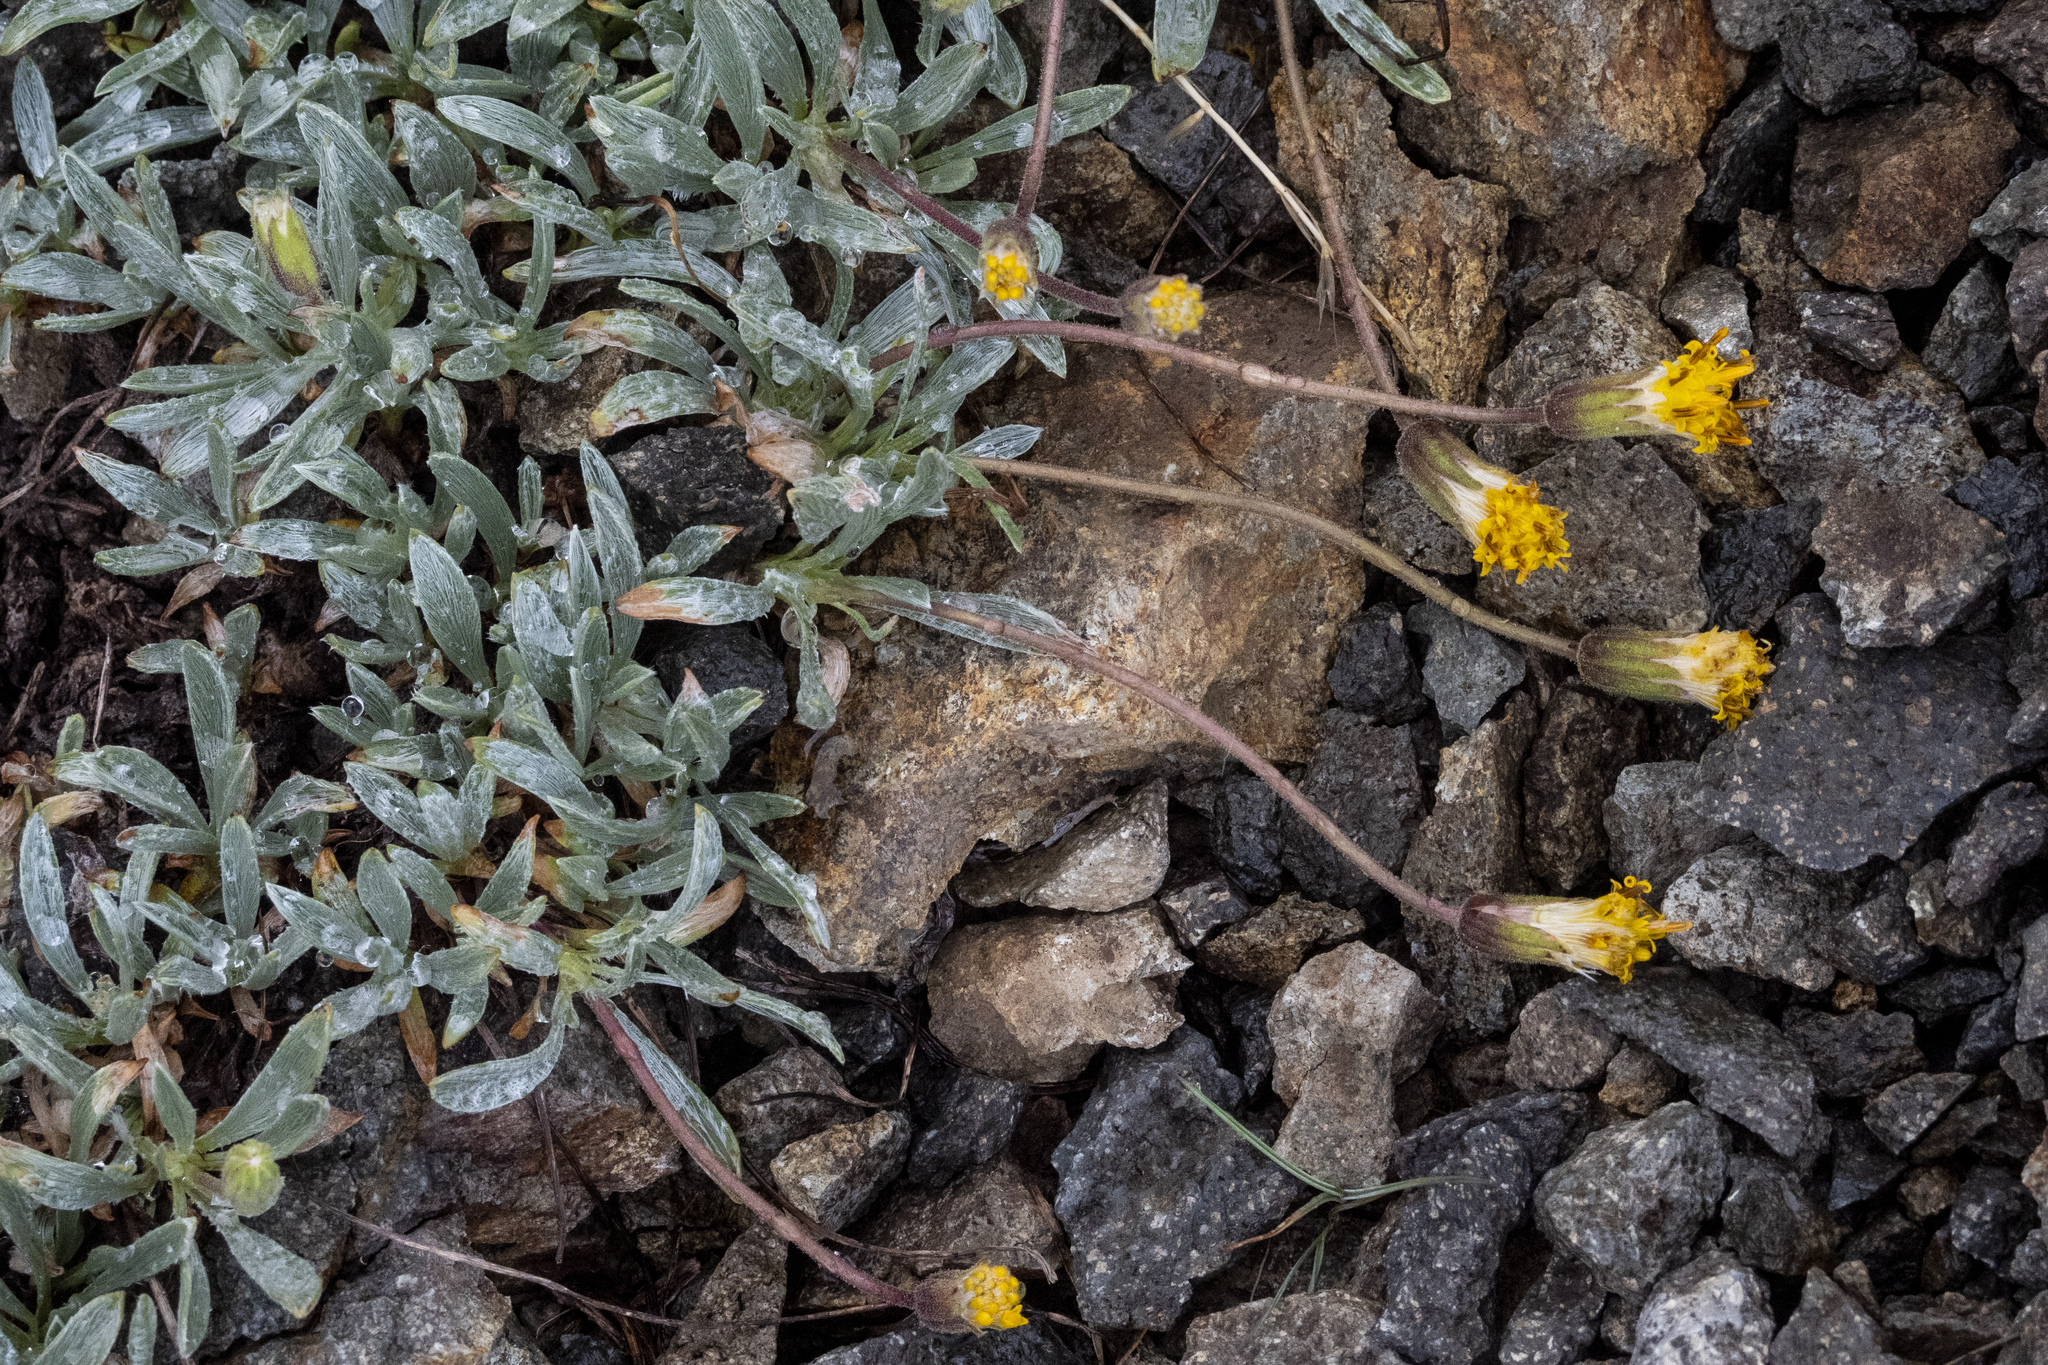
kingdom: Plantae
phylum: Tracheophyta
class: Magnoliopsida
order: Asterales
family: Asteraceae
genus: Raillardella
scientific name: Raillardella argentea
